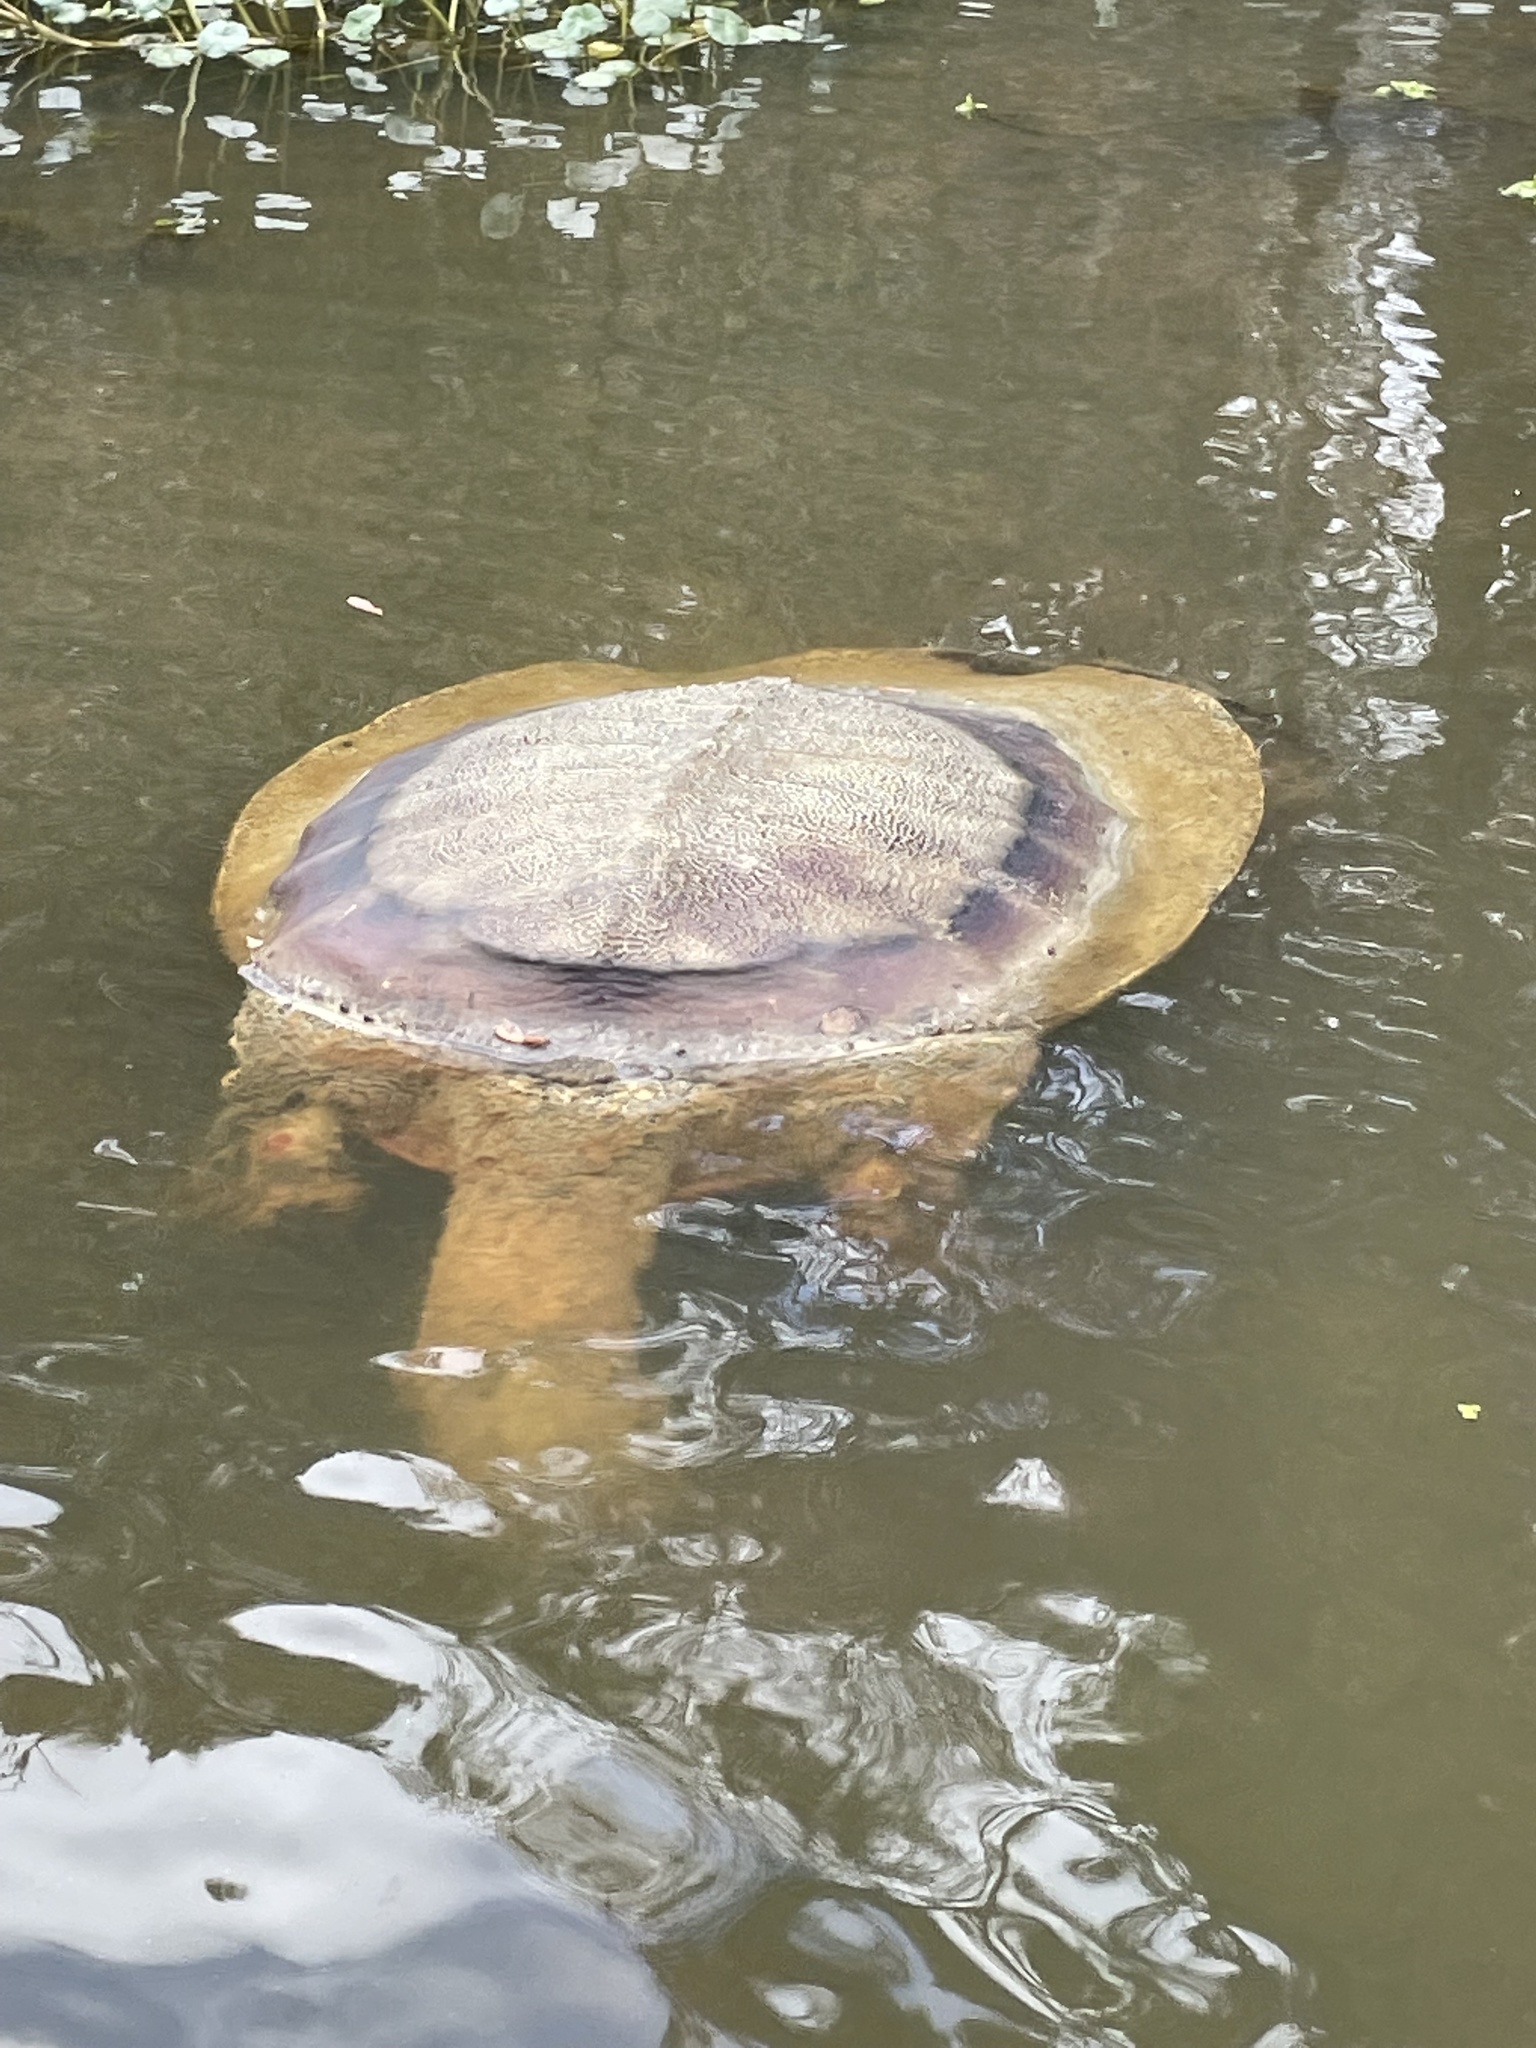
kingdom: Animalia
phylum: Chordata
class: Testudines
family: Trionychidae
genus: Apalone
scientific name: Apalone spinifera
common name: Spiny softshell turtle
